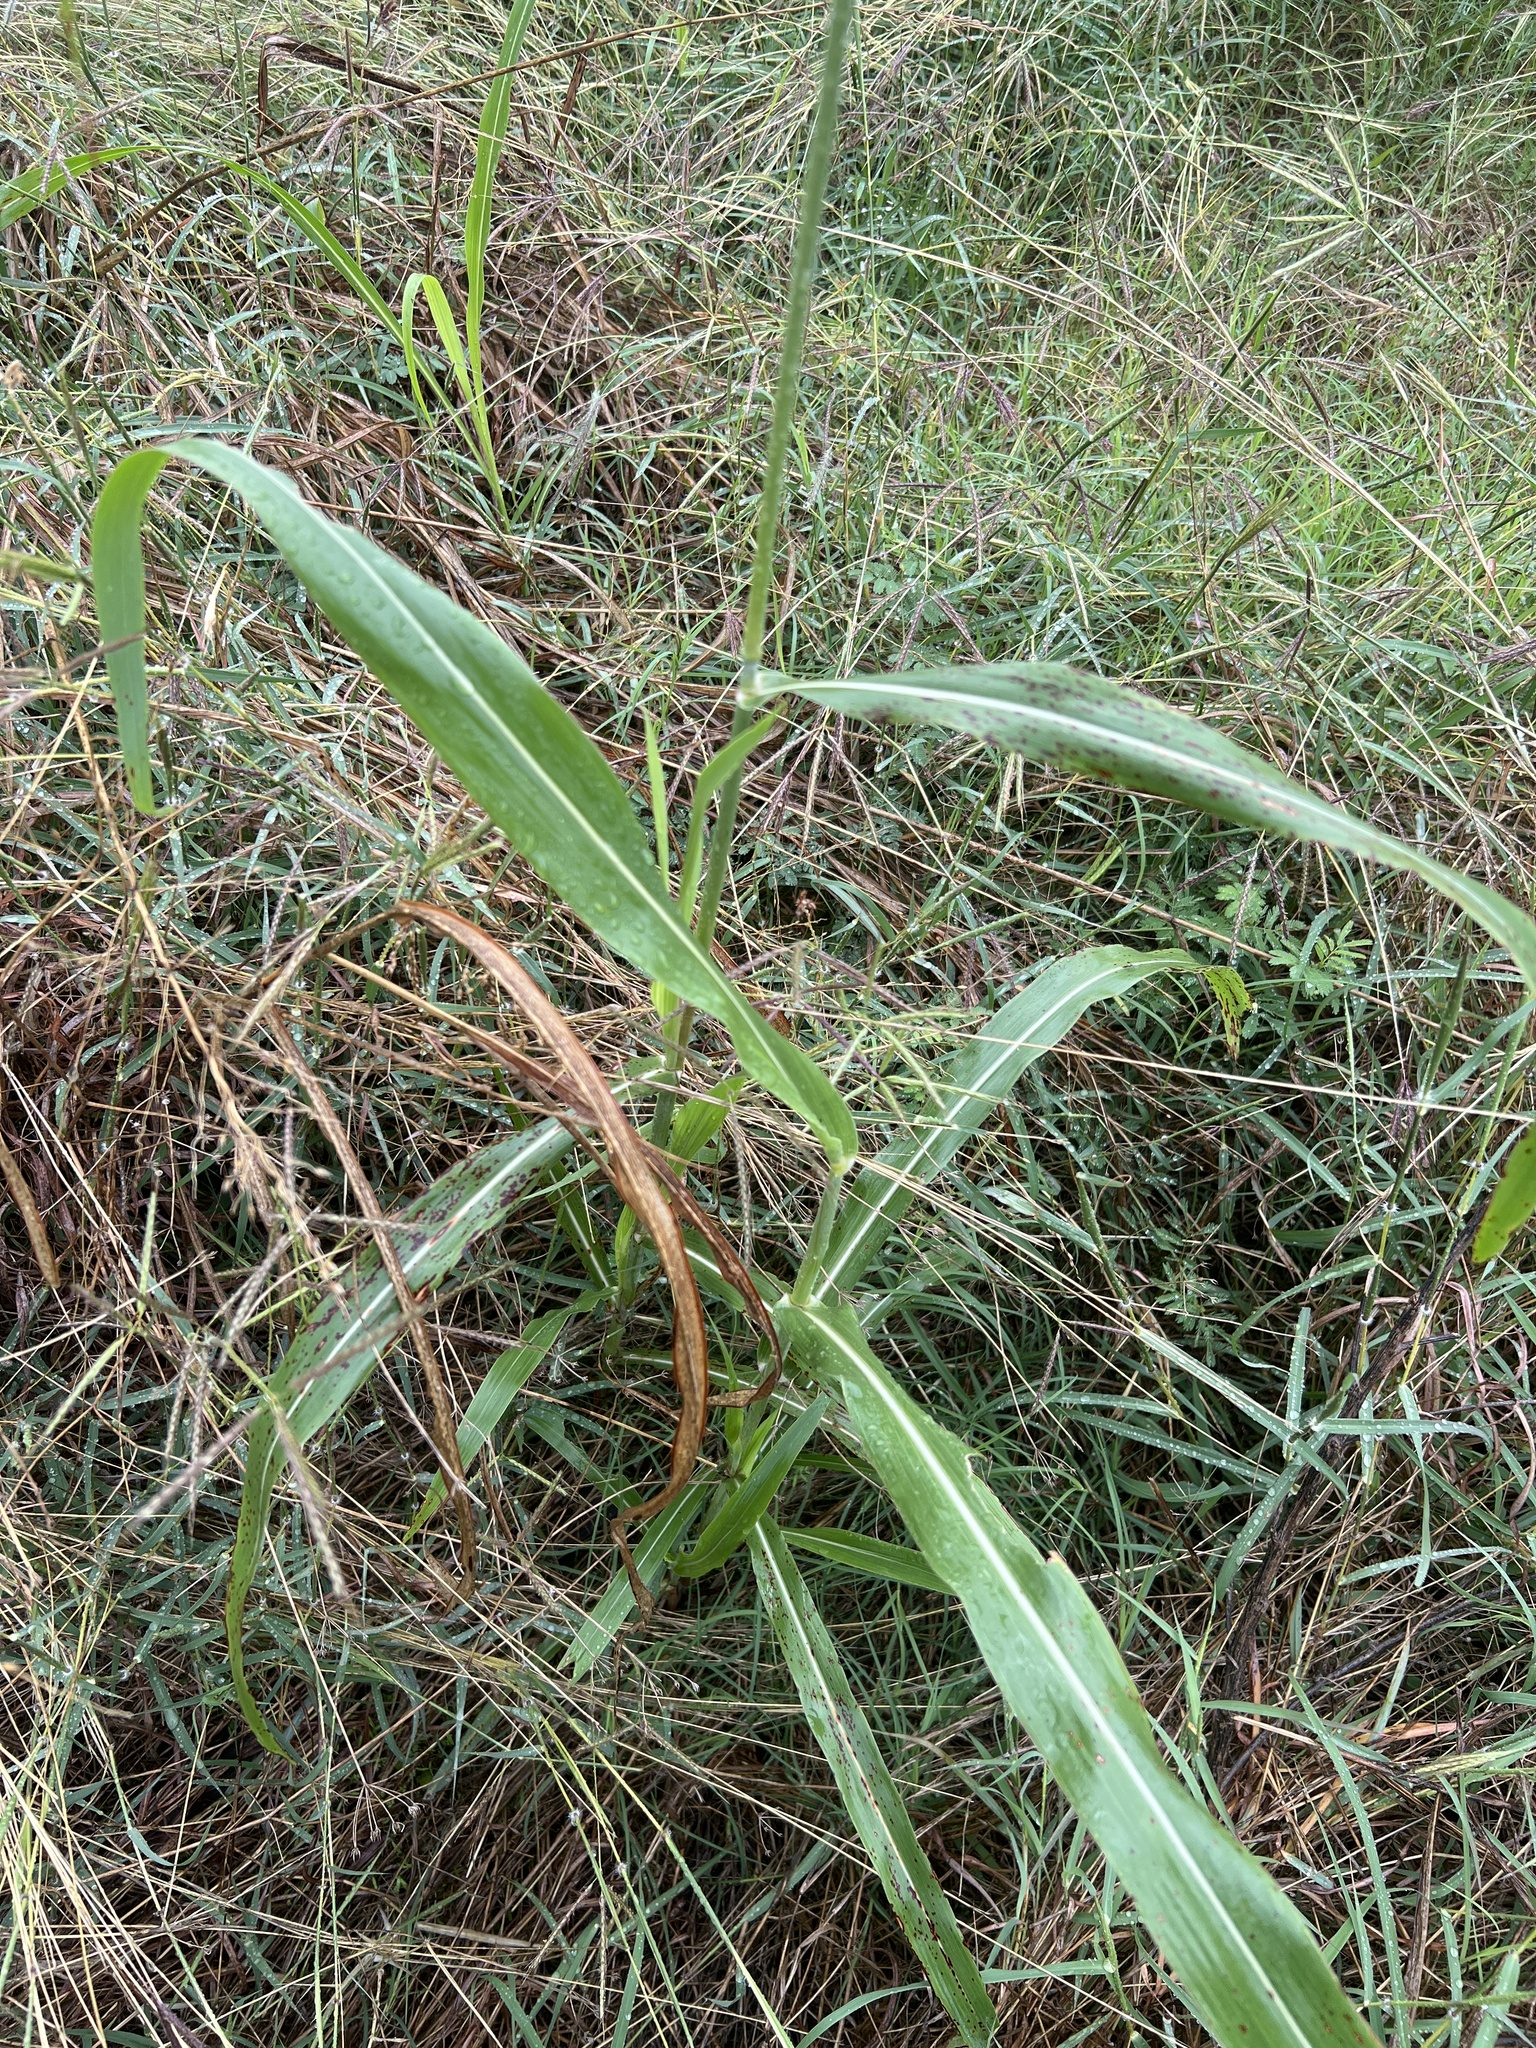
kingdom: Plantae
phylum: Tracheophyta
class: Liliopsida
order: Poales
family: Poaceae
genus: Sorghum
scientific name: Sorghum halepense
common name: Johnson-grass
